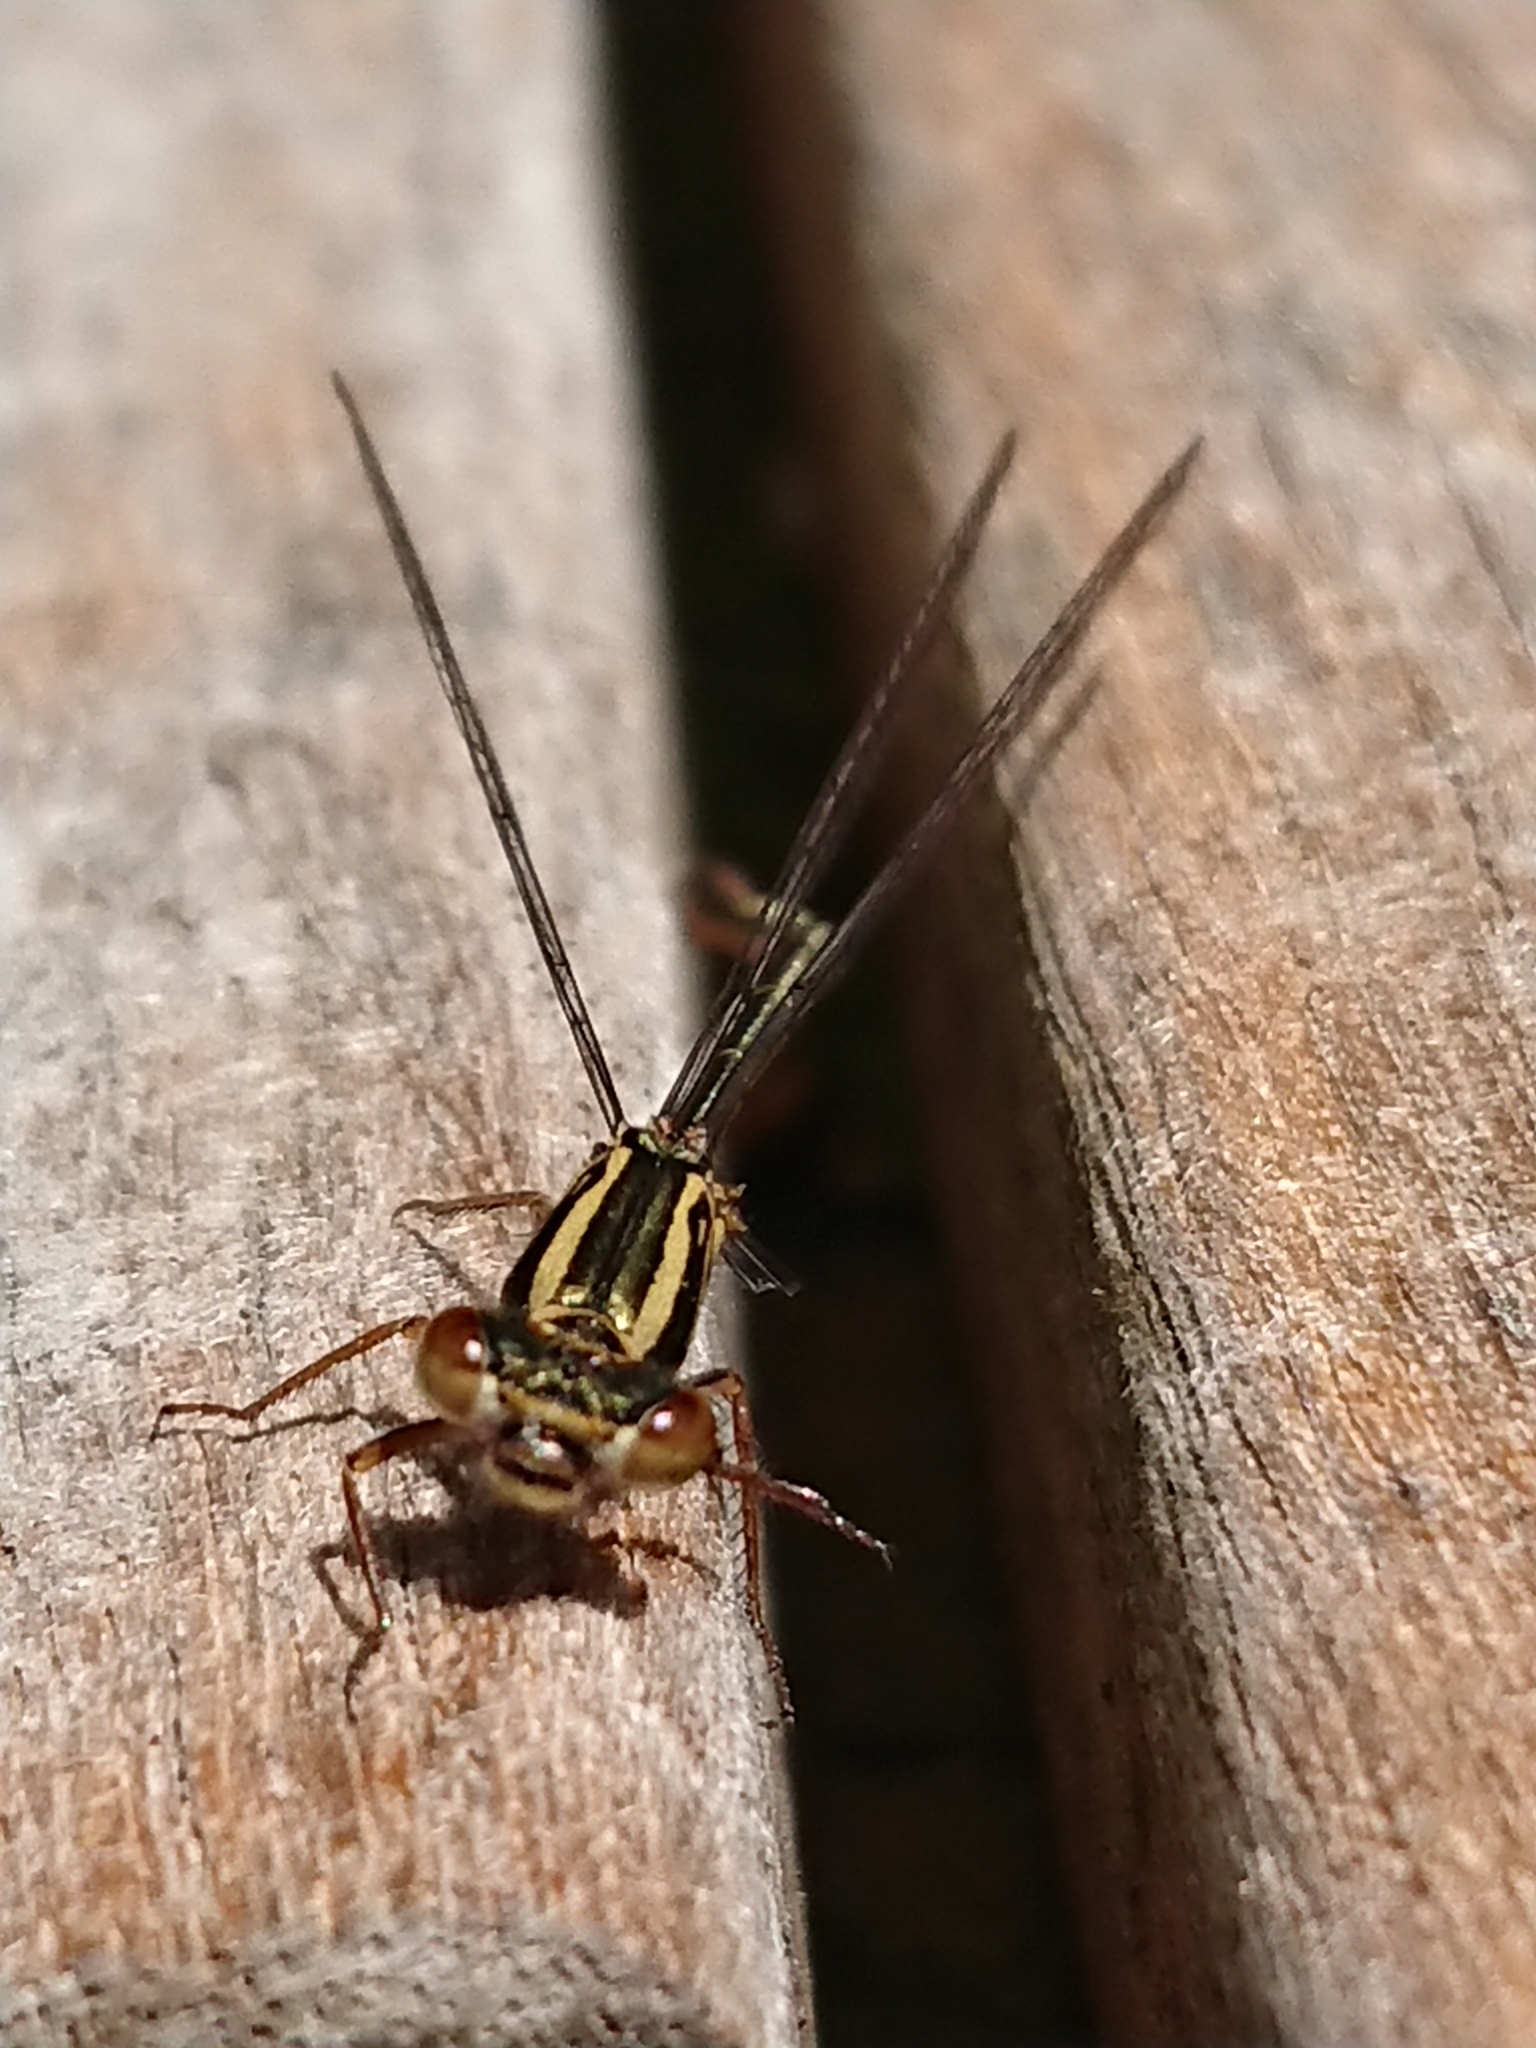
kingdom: Animalia
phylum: Arthropoda
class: Insecta
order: Odonata
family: Coenagrionidae
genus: Xanthocnemis
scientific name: Xanthocnemis zealandica
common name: Common redcoat damselfly
